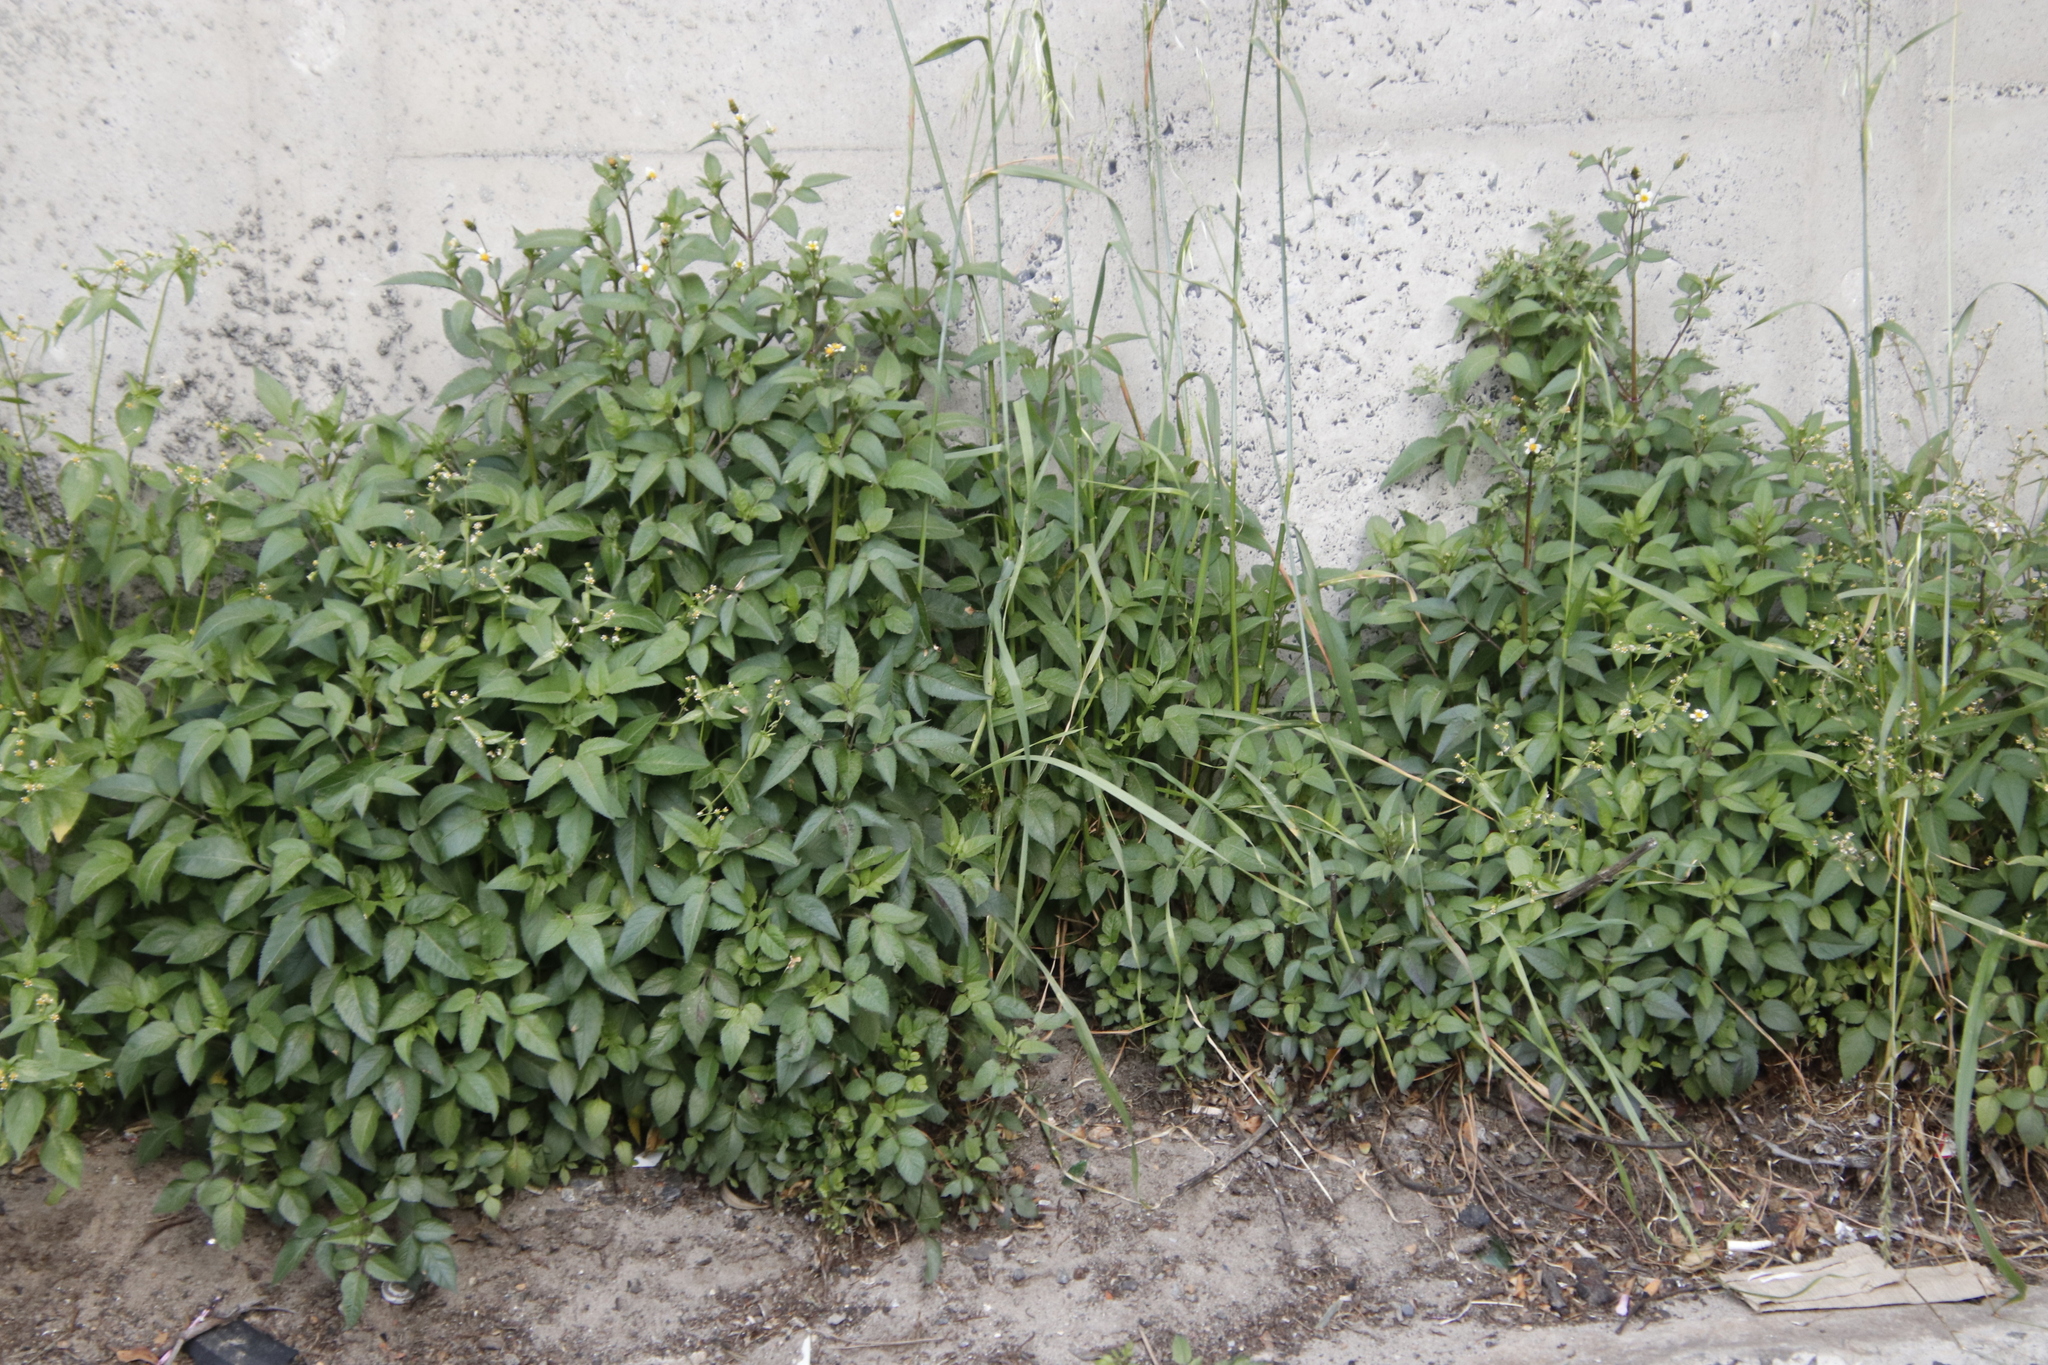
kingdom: Plantae
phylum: Tracheophyta
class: Magnoliopsida
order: Asterales
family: Asteraceae
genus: Bidens
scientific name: Bidens pilosa
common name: Black-jack
